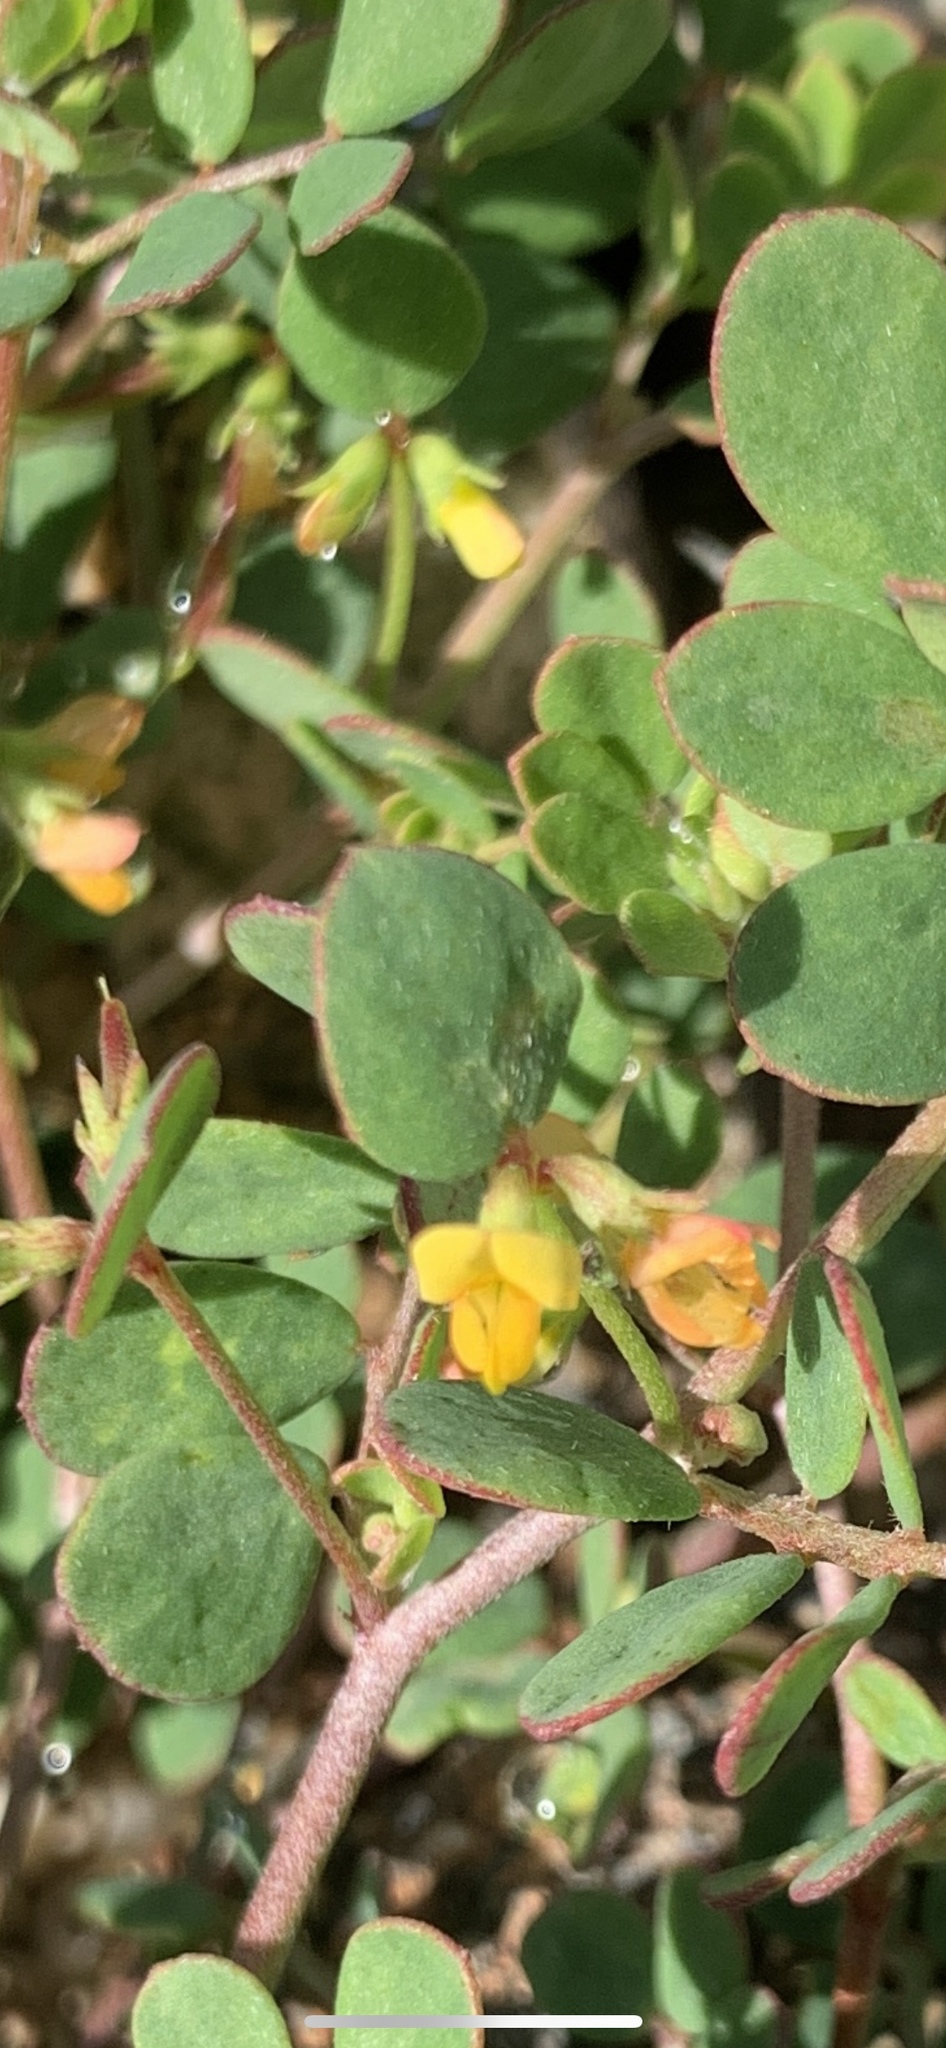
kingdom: Plantae
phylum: Tracheophyta
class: Magnoliopsida
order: Fabales
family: Fabaceae
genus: Acmispon
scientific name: Acmispon maritimus
